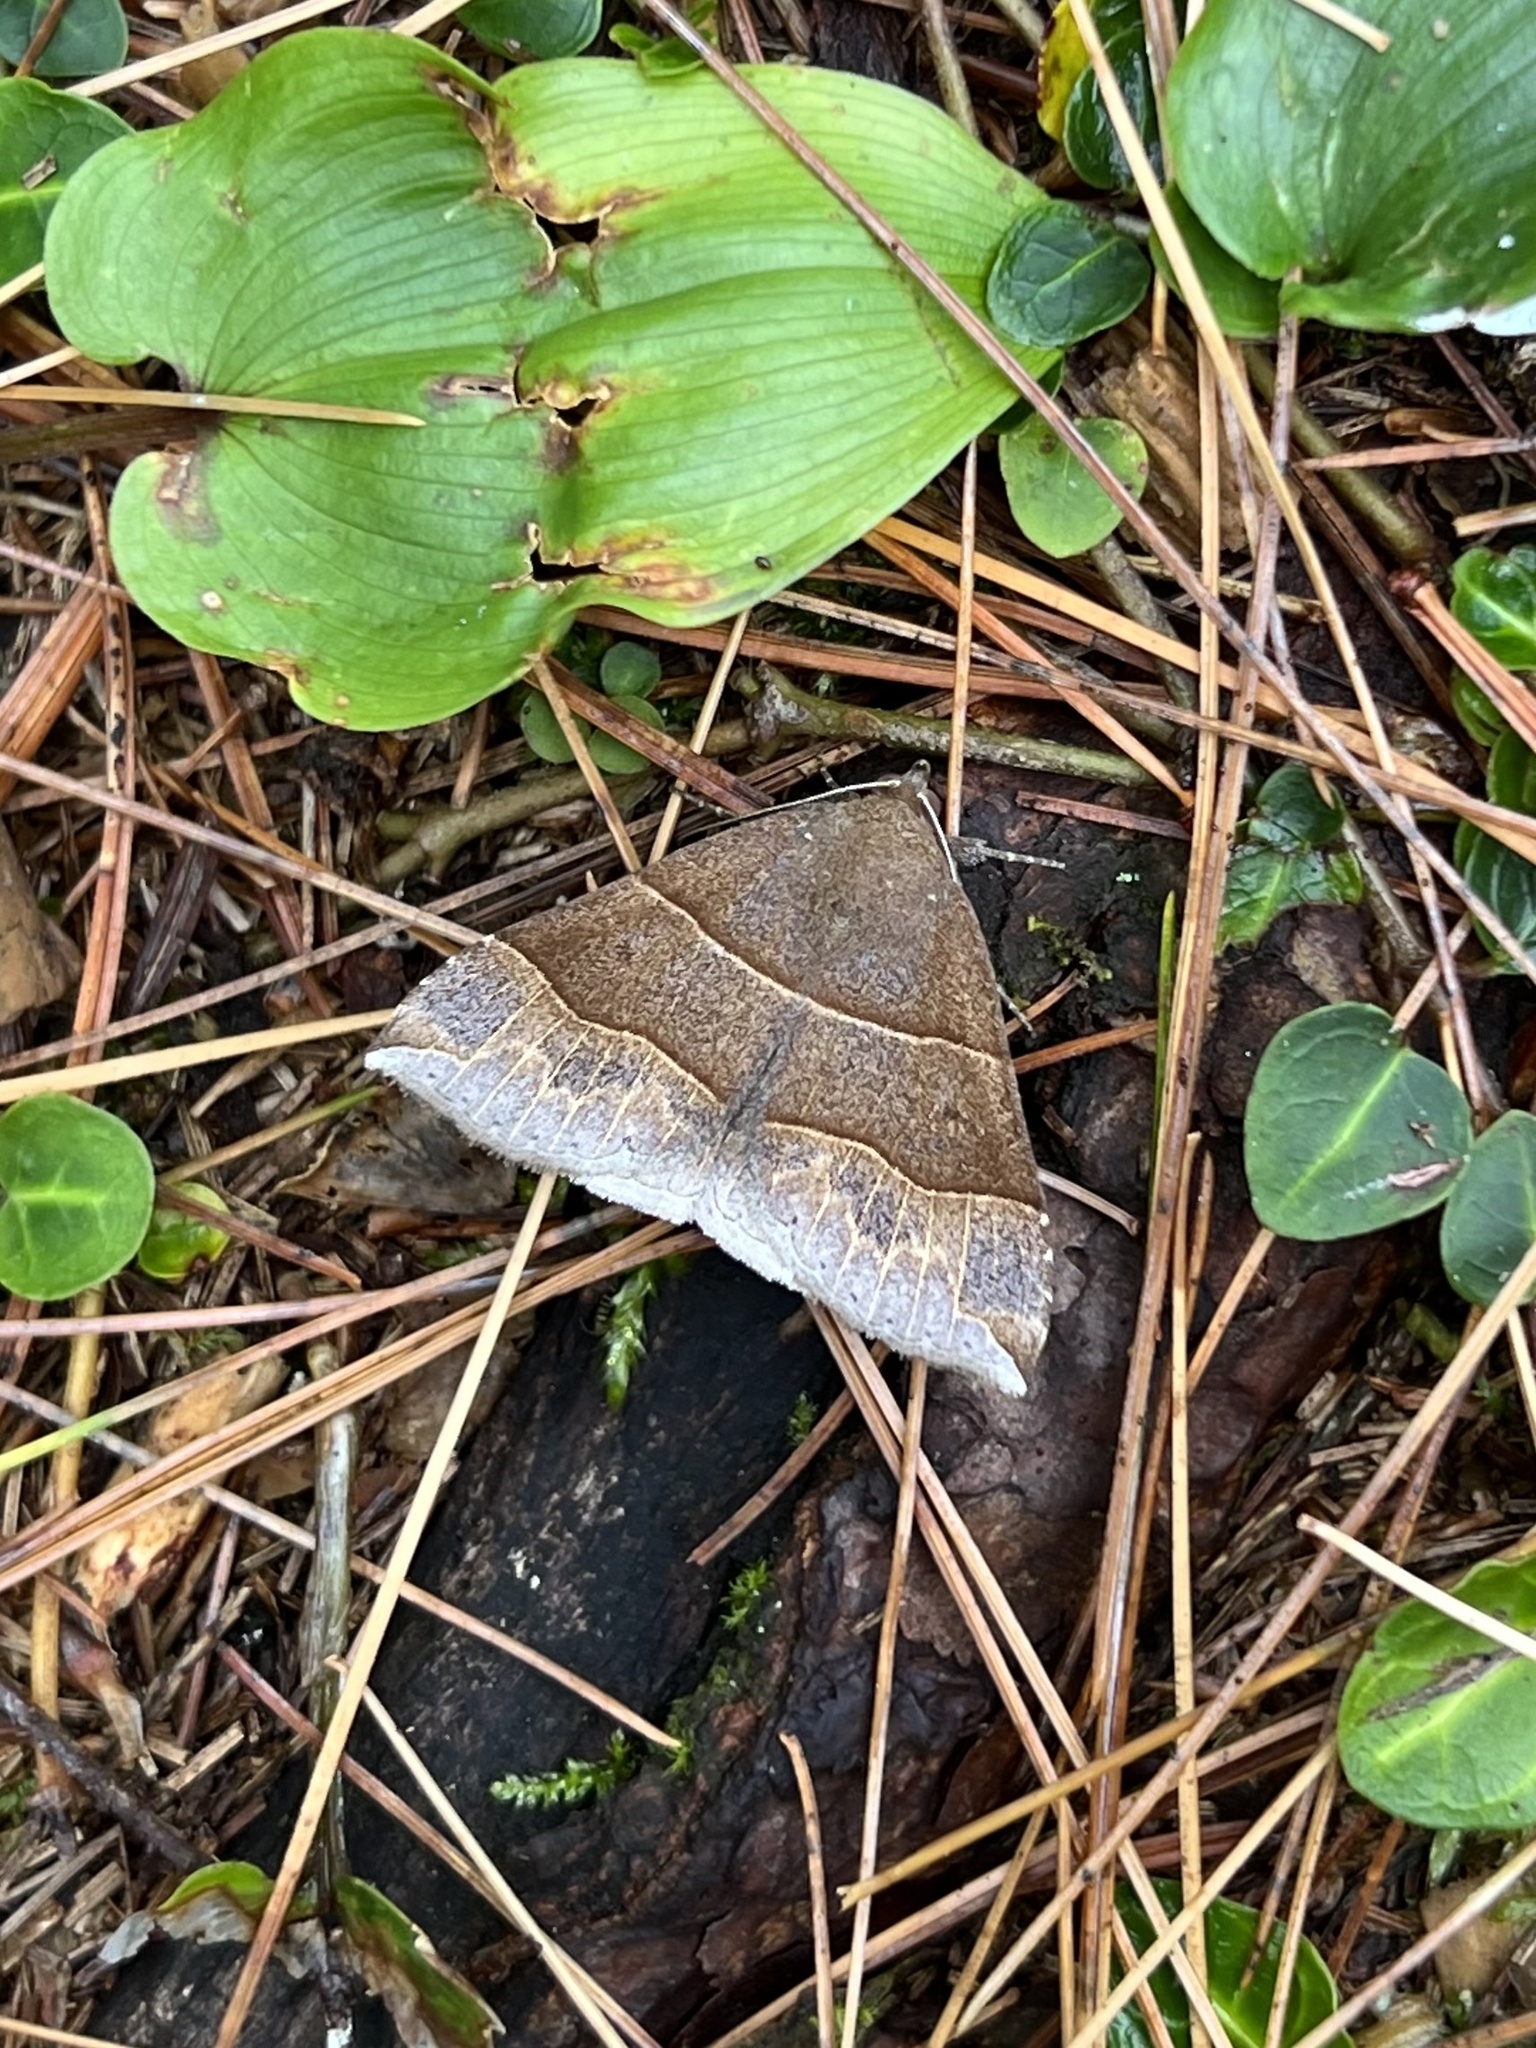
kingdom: Animalia
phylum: Arthropoda
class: Insecta
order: Lepidoptera
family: Erebidae
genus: Parallelia
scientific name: Parallelia bistriaris
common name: Maple looper moth
